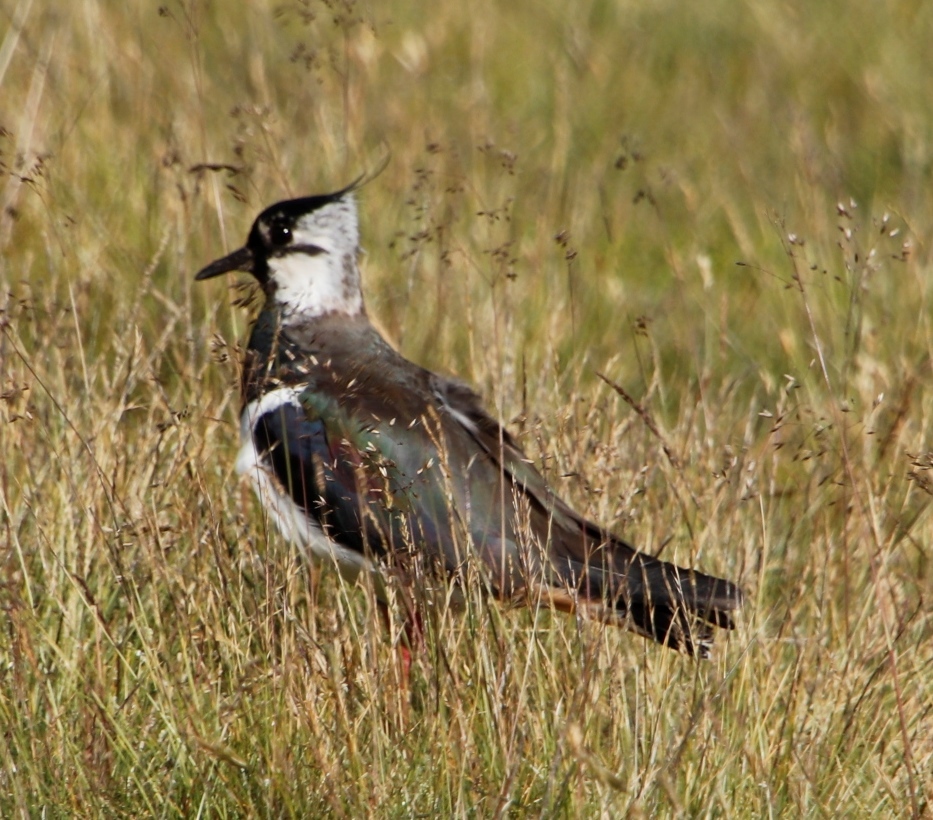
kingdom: Animalia
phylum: Chordata
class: Aves
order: Charadriiformes
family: Charadriidae
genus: Vanellus
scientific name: Vanellus vanellus
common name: Northern lapwing
